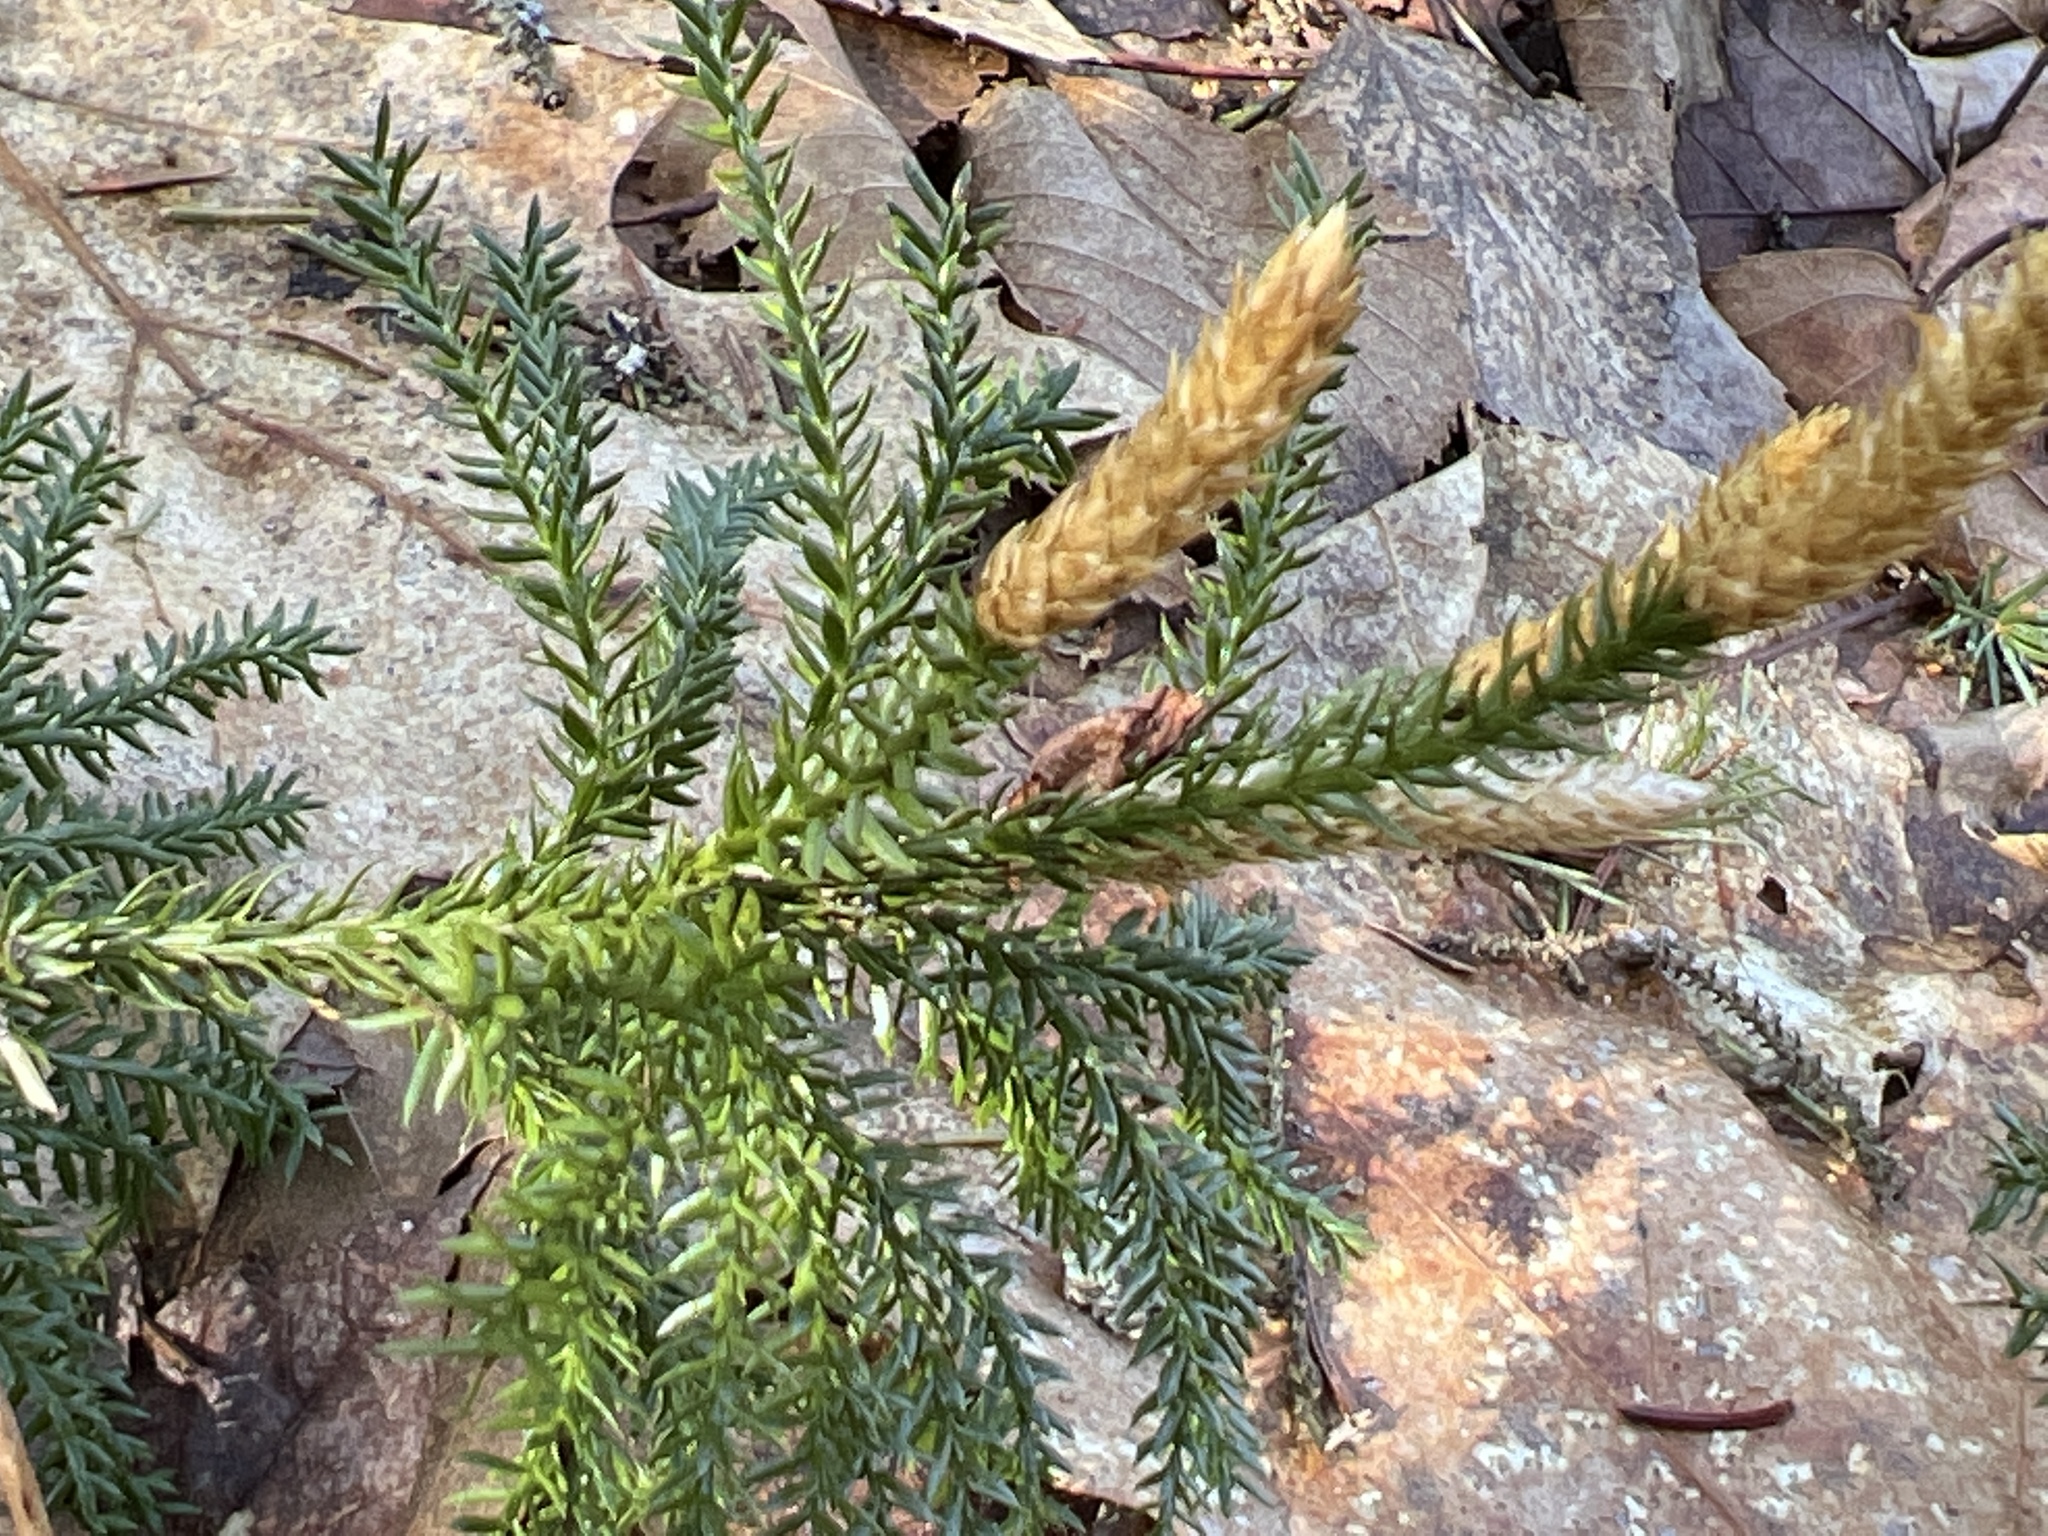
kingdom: Plantae
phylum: Tracheophyta
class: Lycopodiopsida
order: Lycopodiales
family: Lycopodiaceae
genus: Dendrolycopodium
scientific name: Dendrolycopodium hickeyi
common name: Hickey's clubmoss
